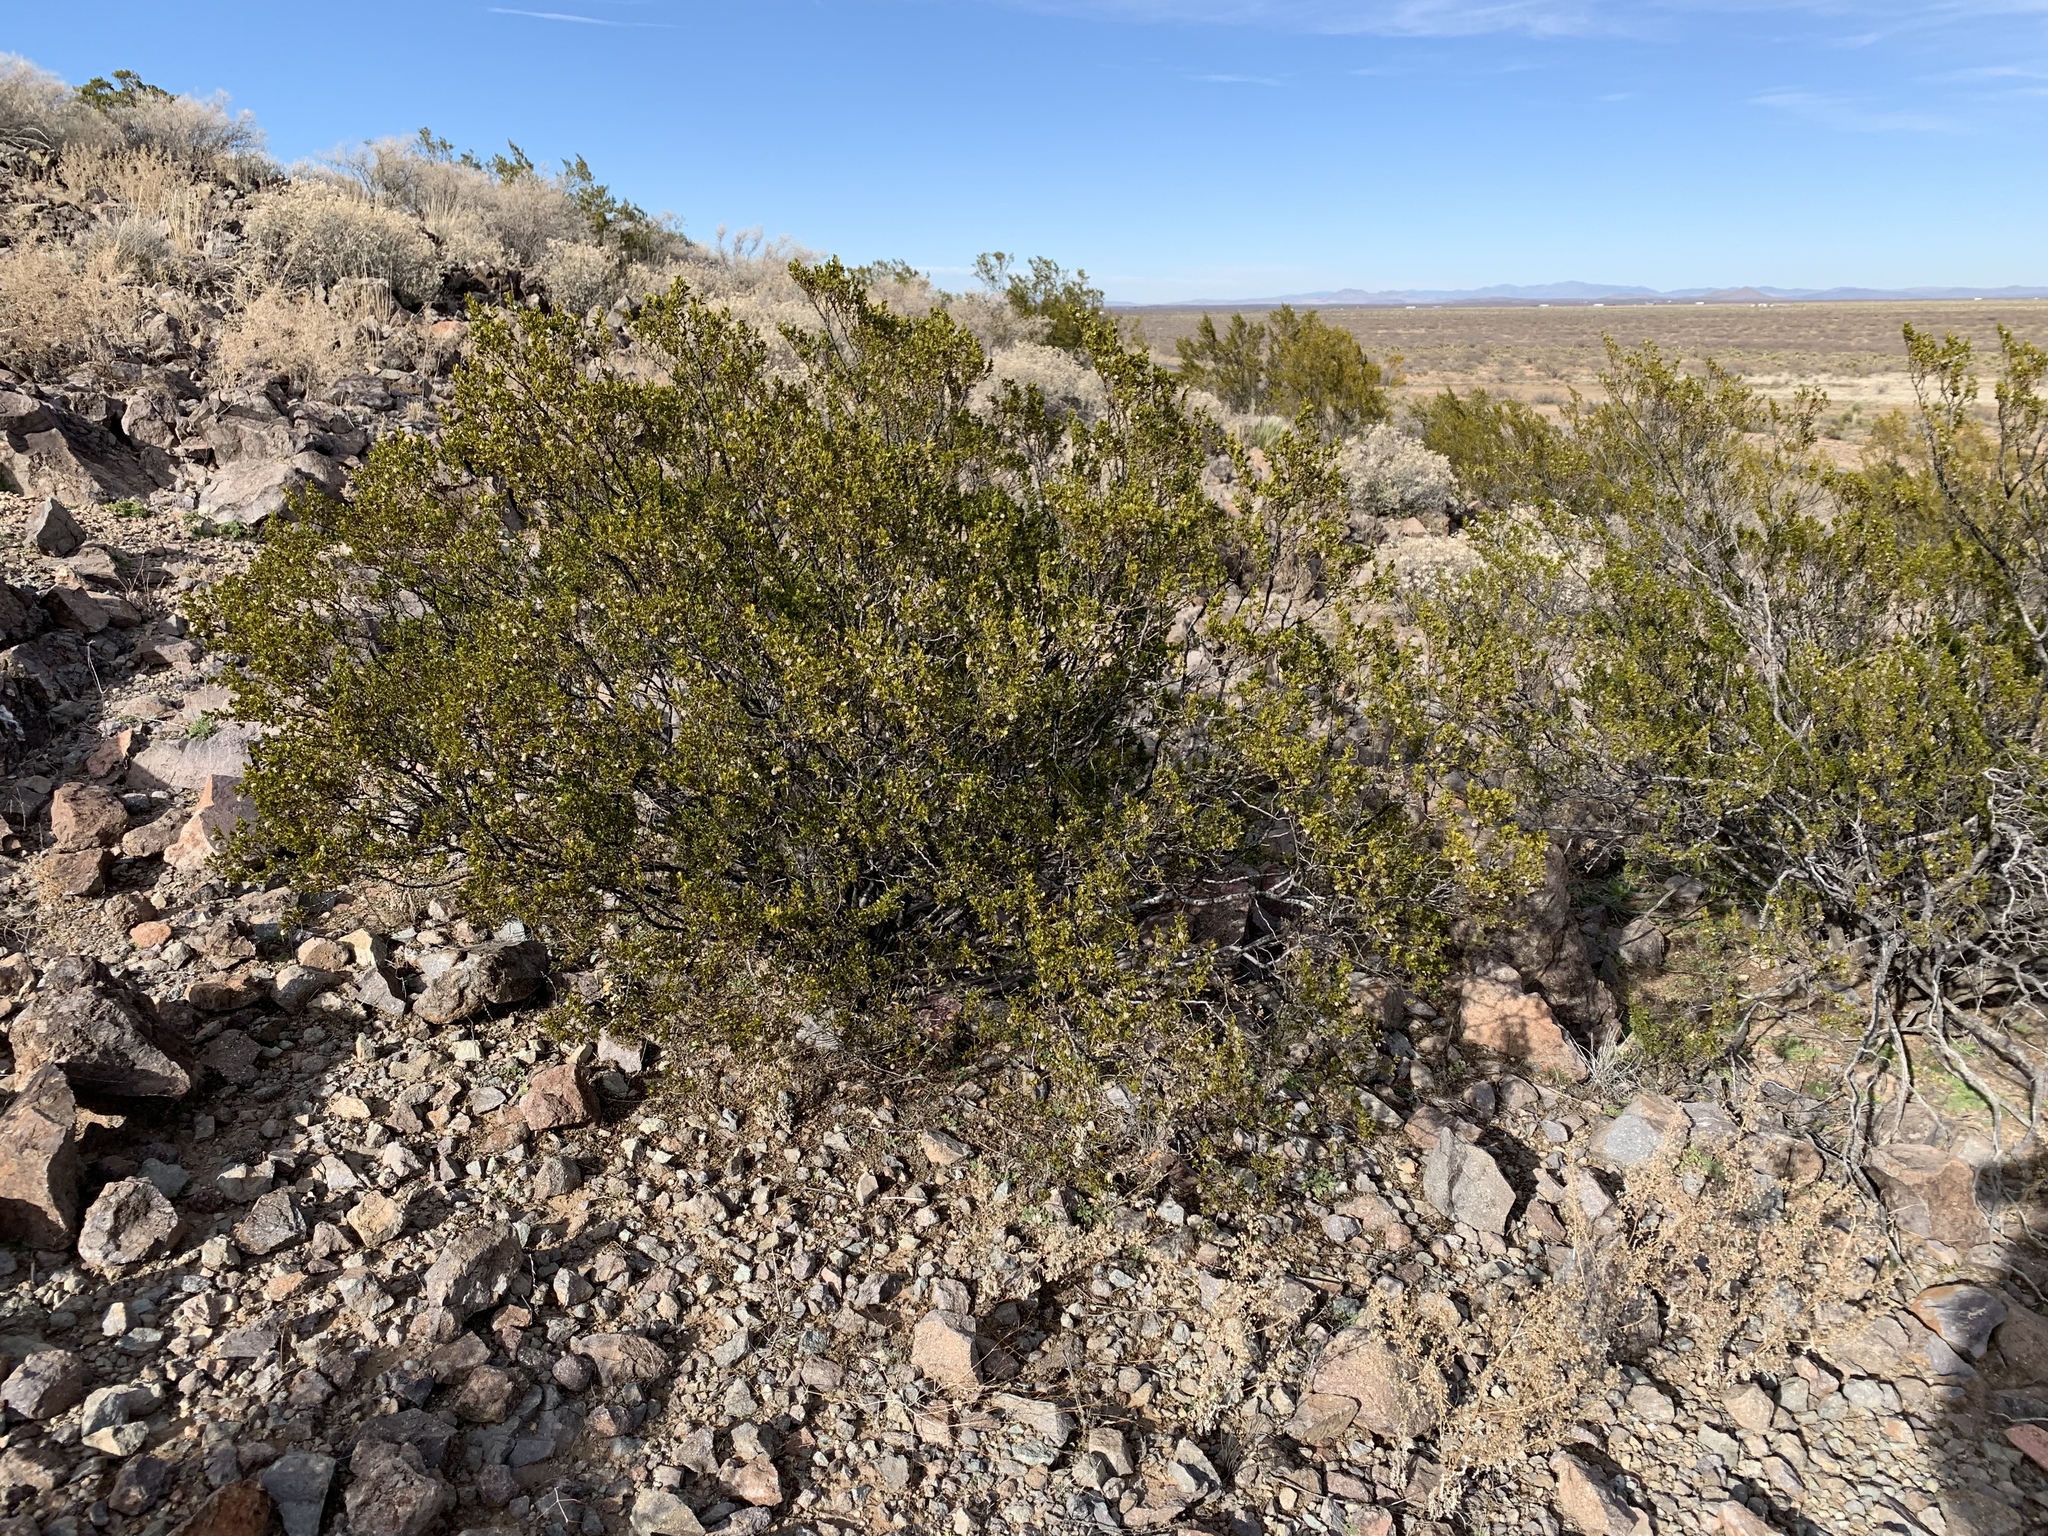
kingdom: Plantae
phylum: Tracheophyta
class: Magnoliopsida
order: Zygophyllales
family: Zygophyllaceae
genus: Larrea
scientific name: Larrea tridentata
